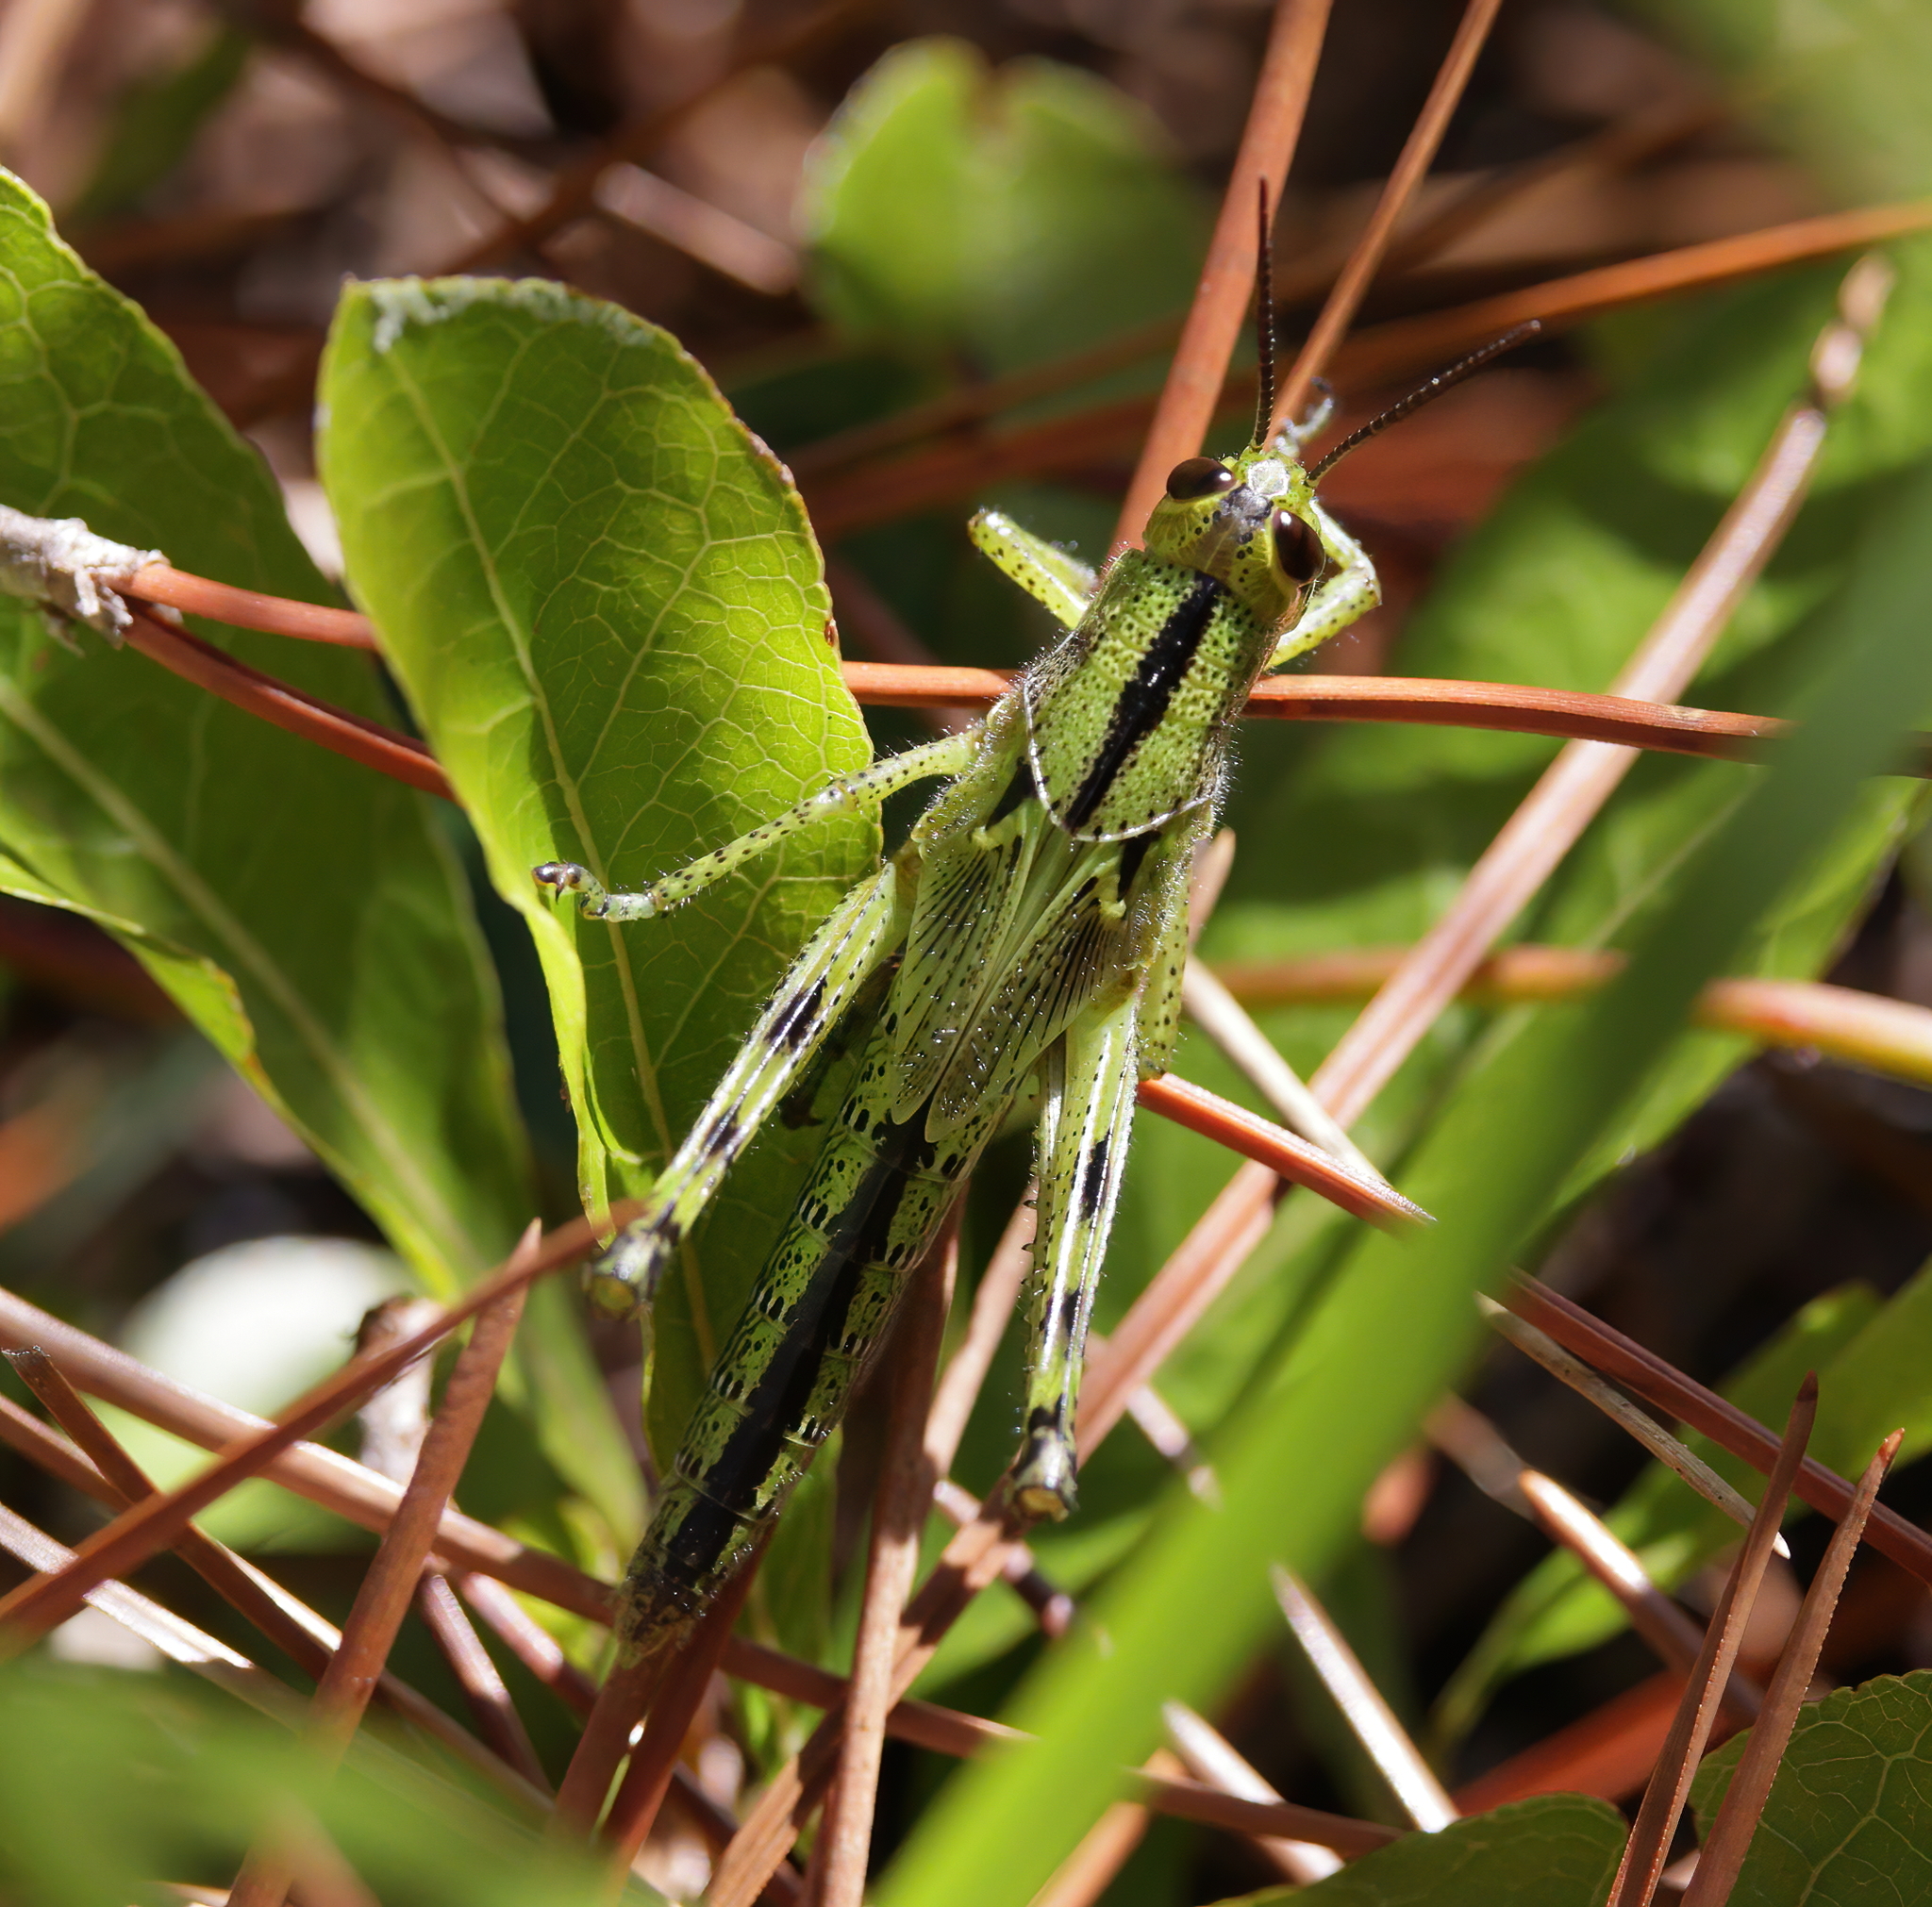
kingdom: Animalia
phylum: Arthropoda
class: Insecta
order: Orthoptera
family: Acrididae
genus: Schistocerca
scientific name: Schistocerca americana
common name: American bird locust
